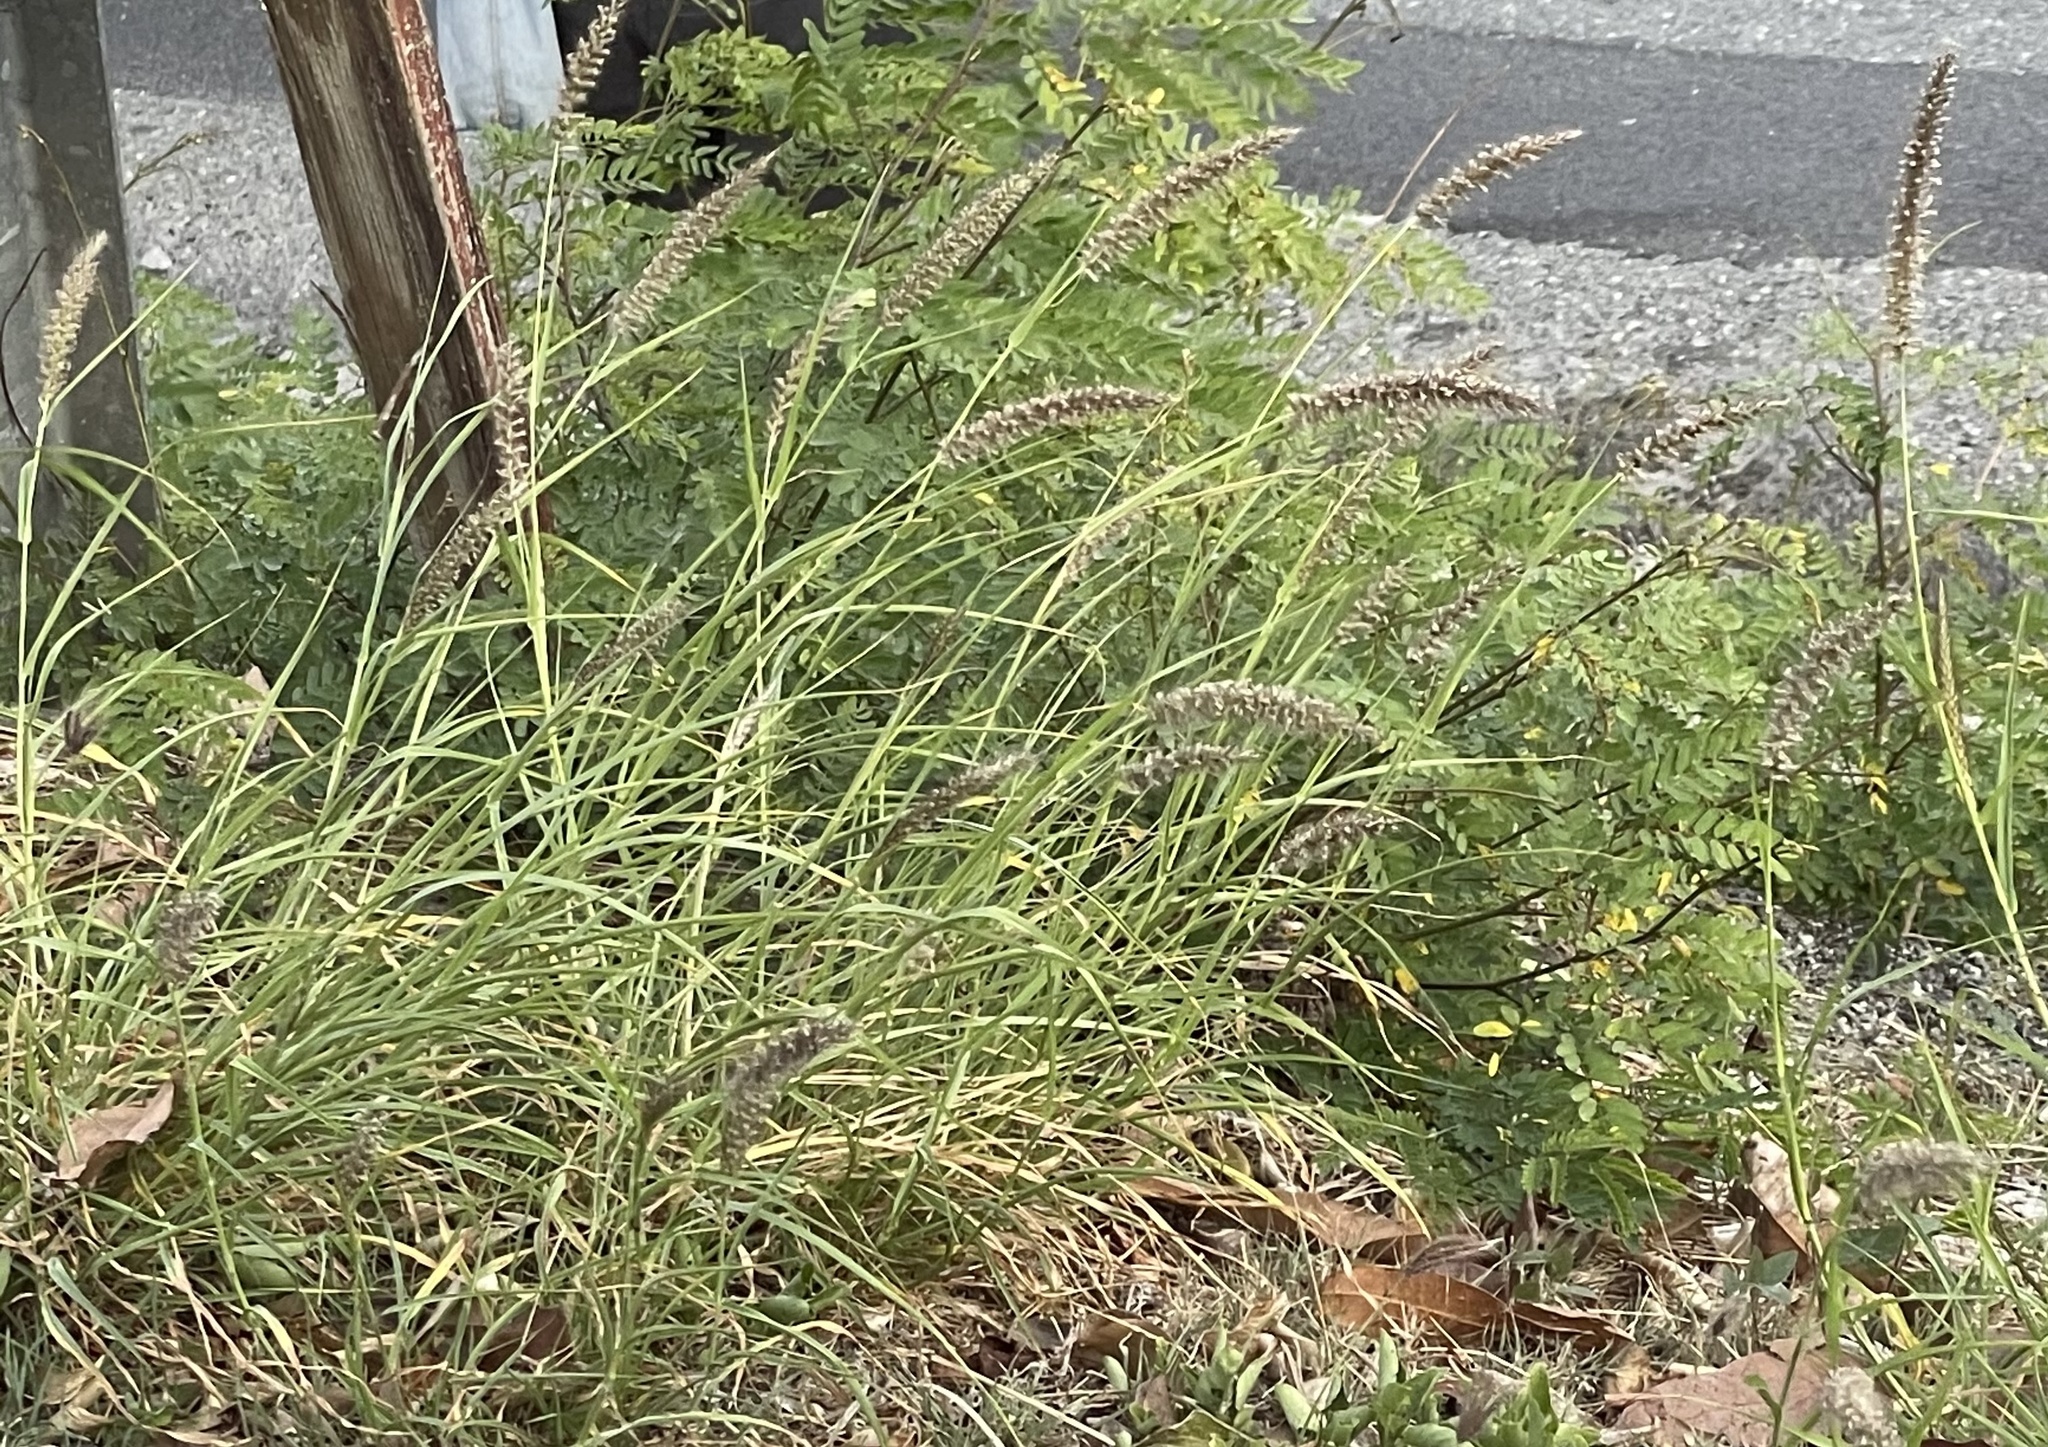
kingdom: Plantae
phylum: Tracheophyta
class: Liliopsida
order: Poales
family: Poaceae
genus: Cenchrus
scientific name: Cenchrus ciliaris
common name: Buffelgrass
